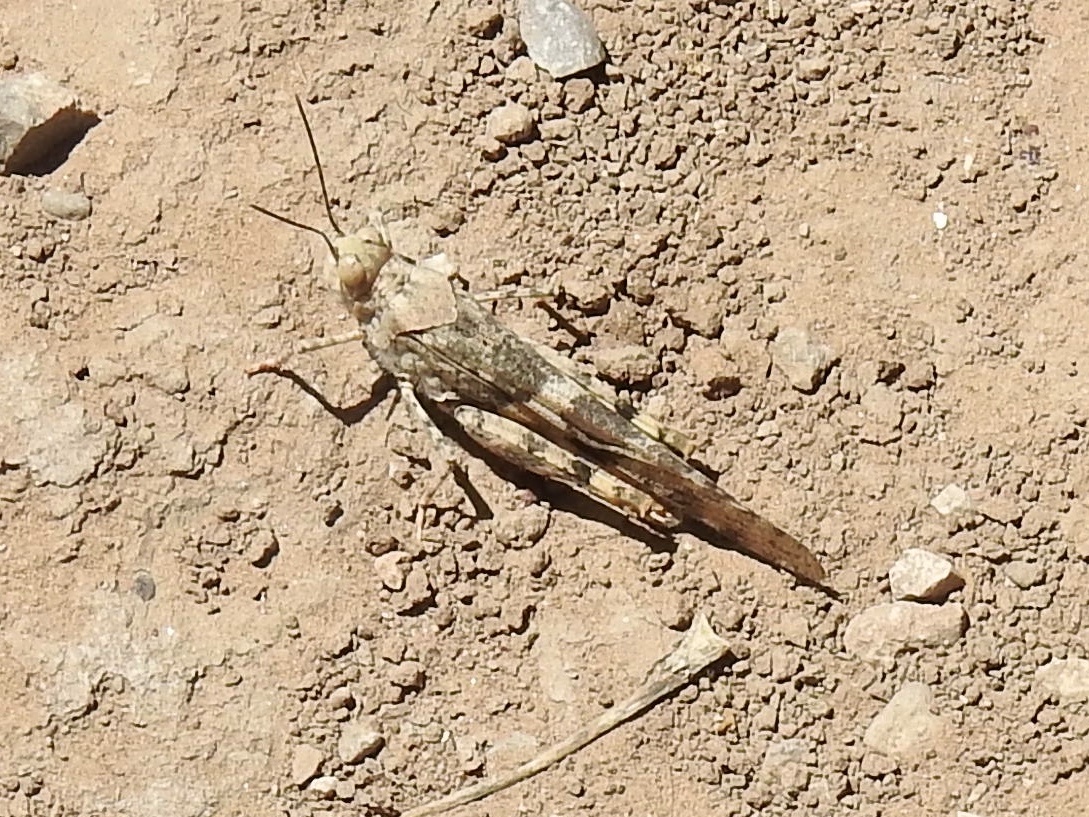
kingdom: Animalia
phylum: Arthropoda
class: Insecta
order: Orthoptera
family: Acrididae
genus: Trimerotropis
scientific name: Trimerotropis pallidipennis
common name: Pallid-winged grasshopper
